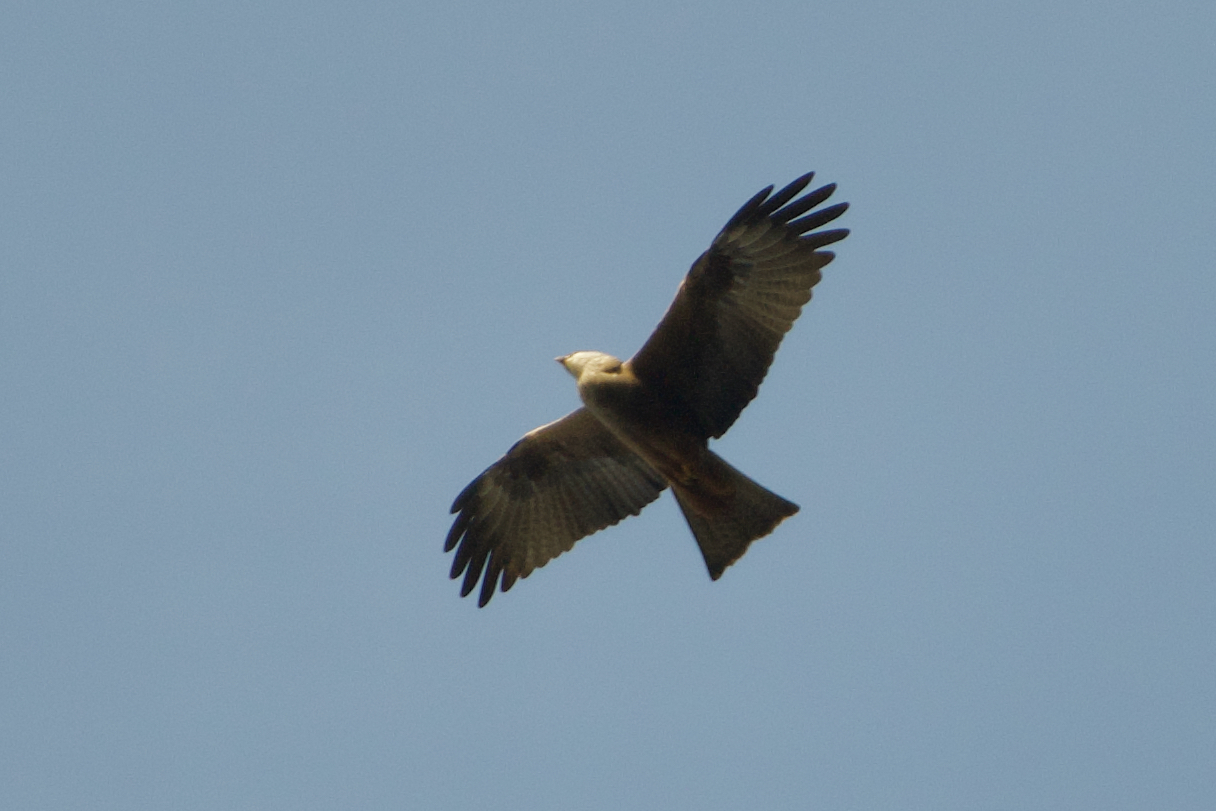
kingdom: Animalia
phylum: Chordata
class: Aves
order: Accipitriformes
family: Accipitridae
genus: Milvus
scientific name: Milvus migrans
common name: Black kite
